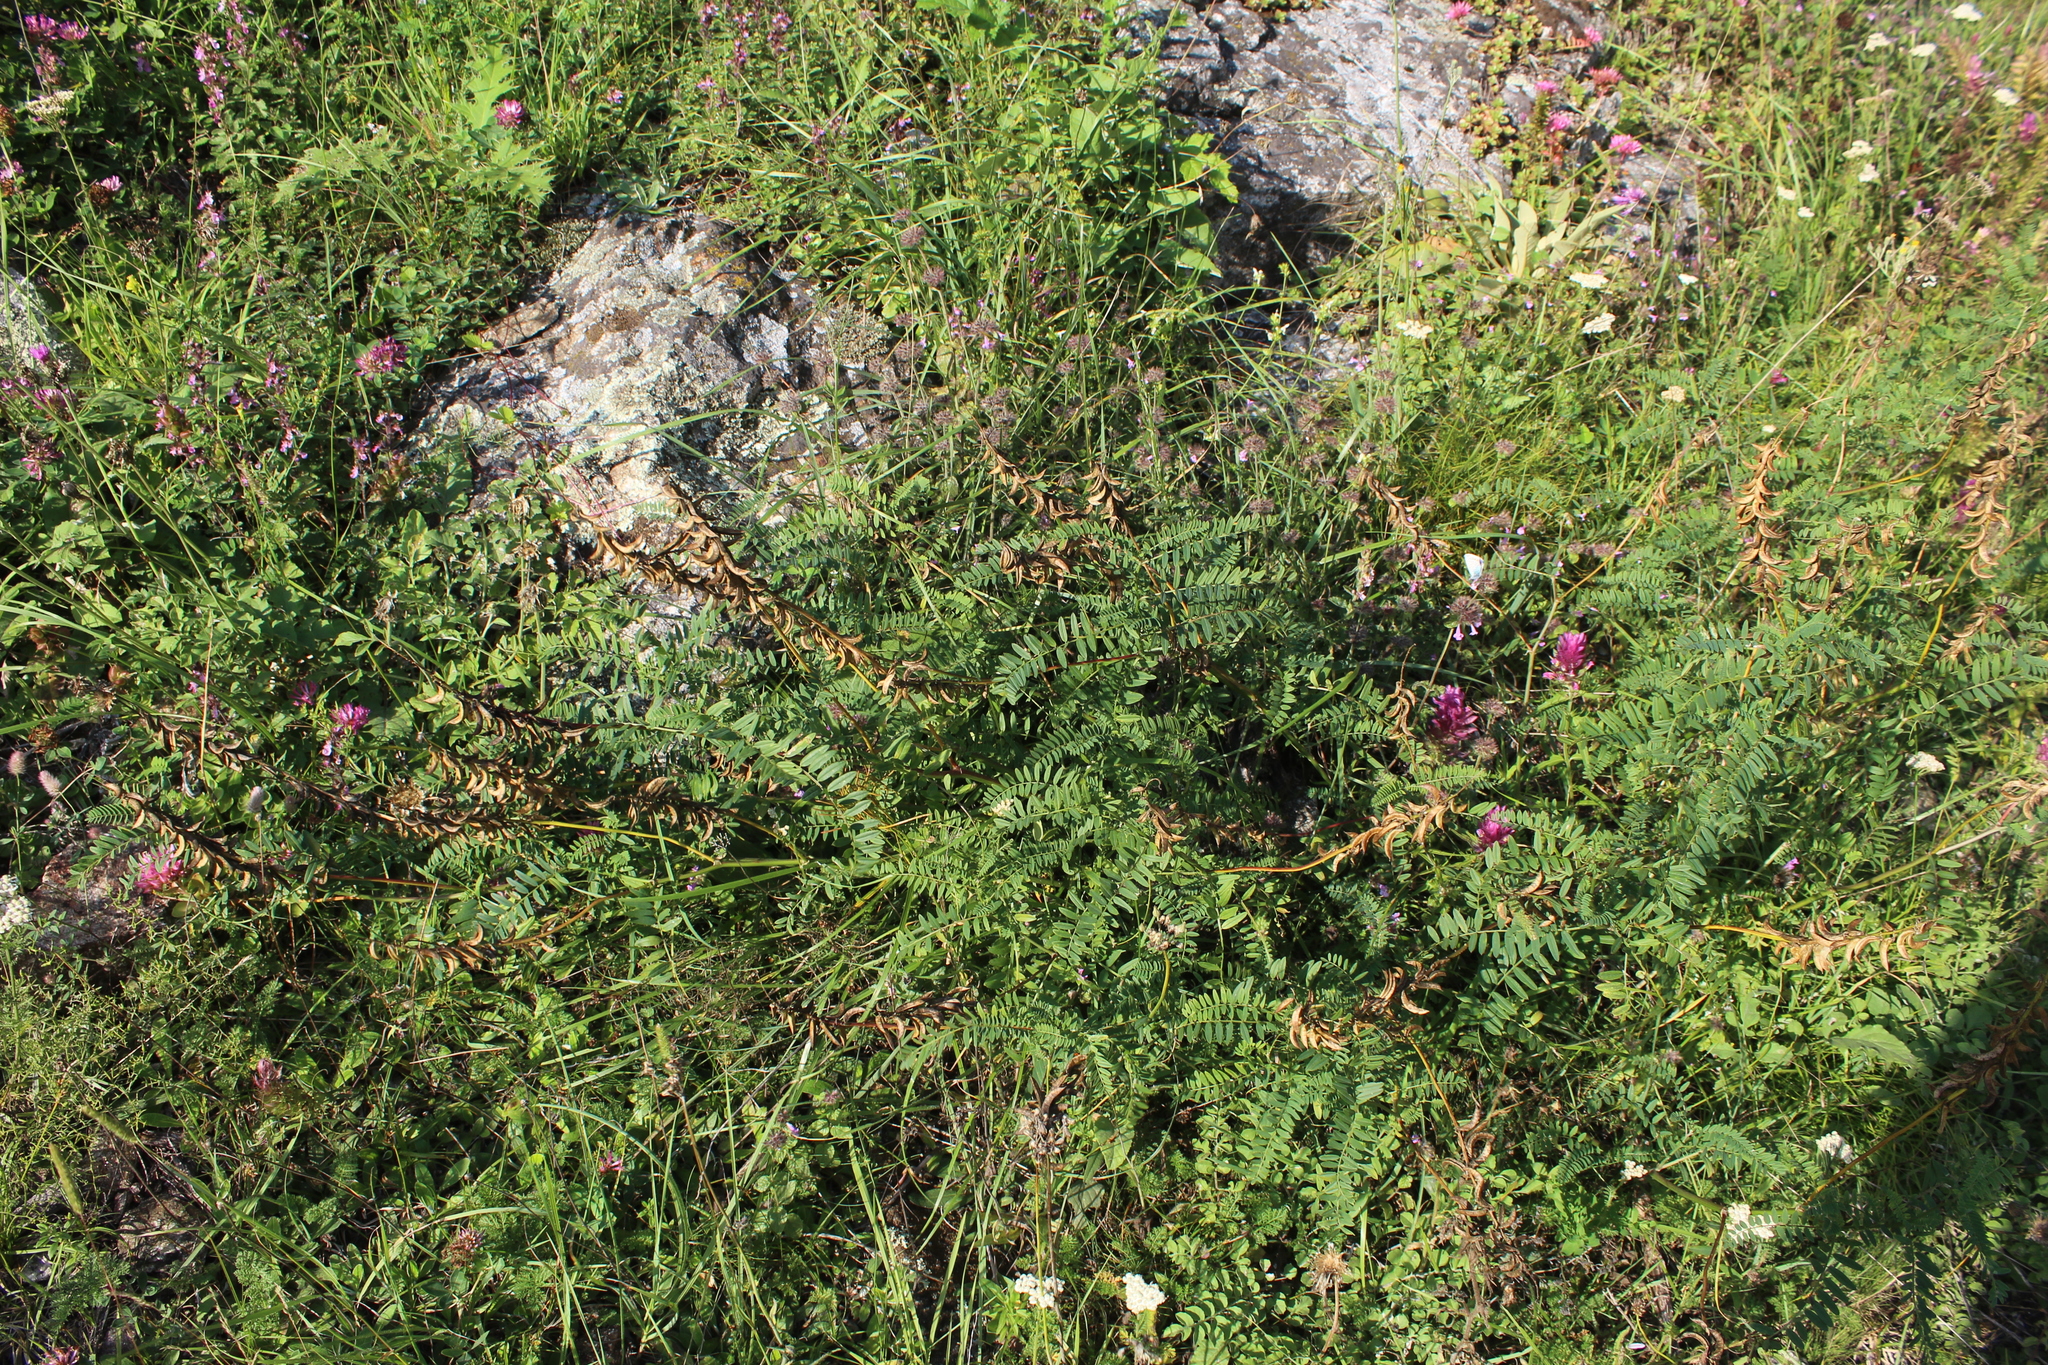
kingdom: Plantae
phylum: Tracheophyta
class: Magnoliopsida
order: Fabales
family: Fabaceae
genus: Astragalus
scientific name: Astragalus falcatus
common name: Russian sickle milk-vetch
